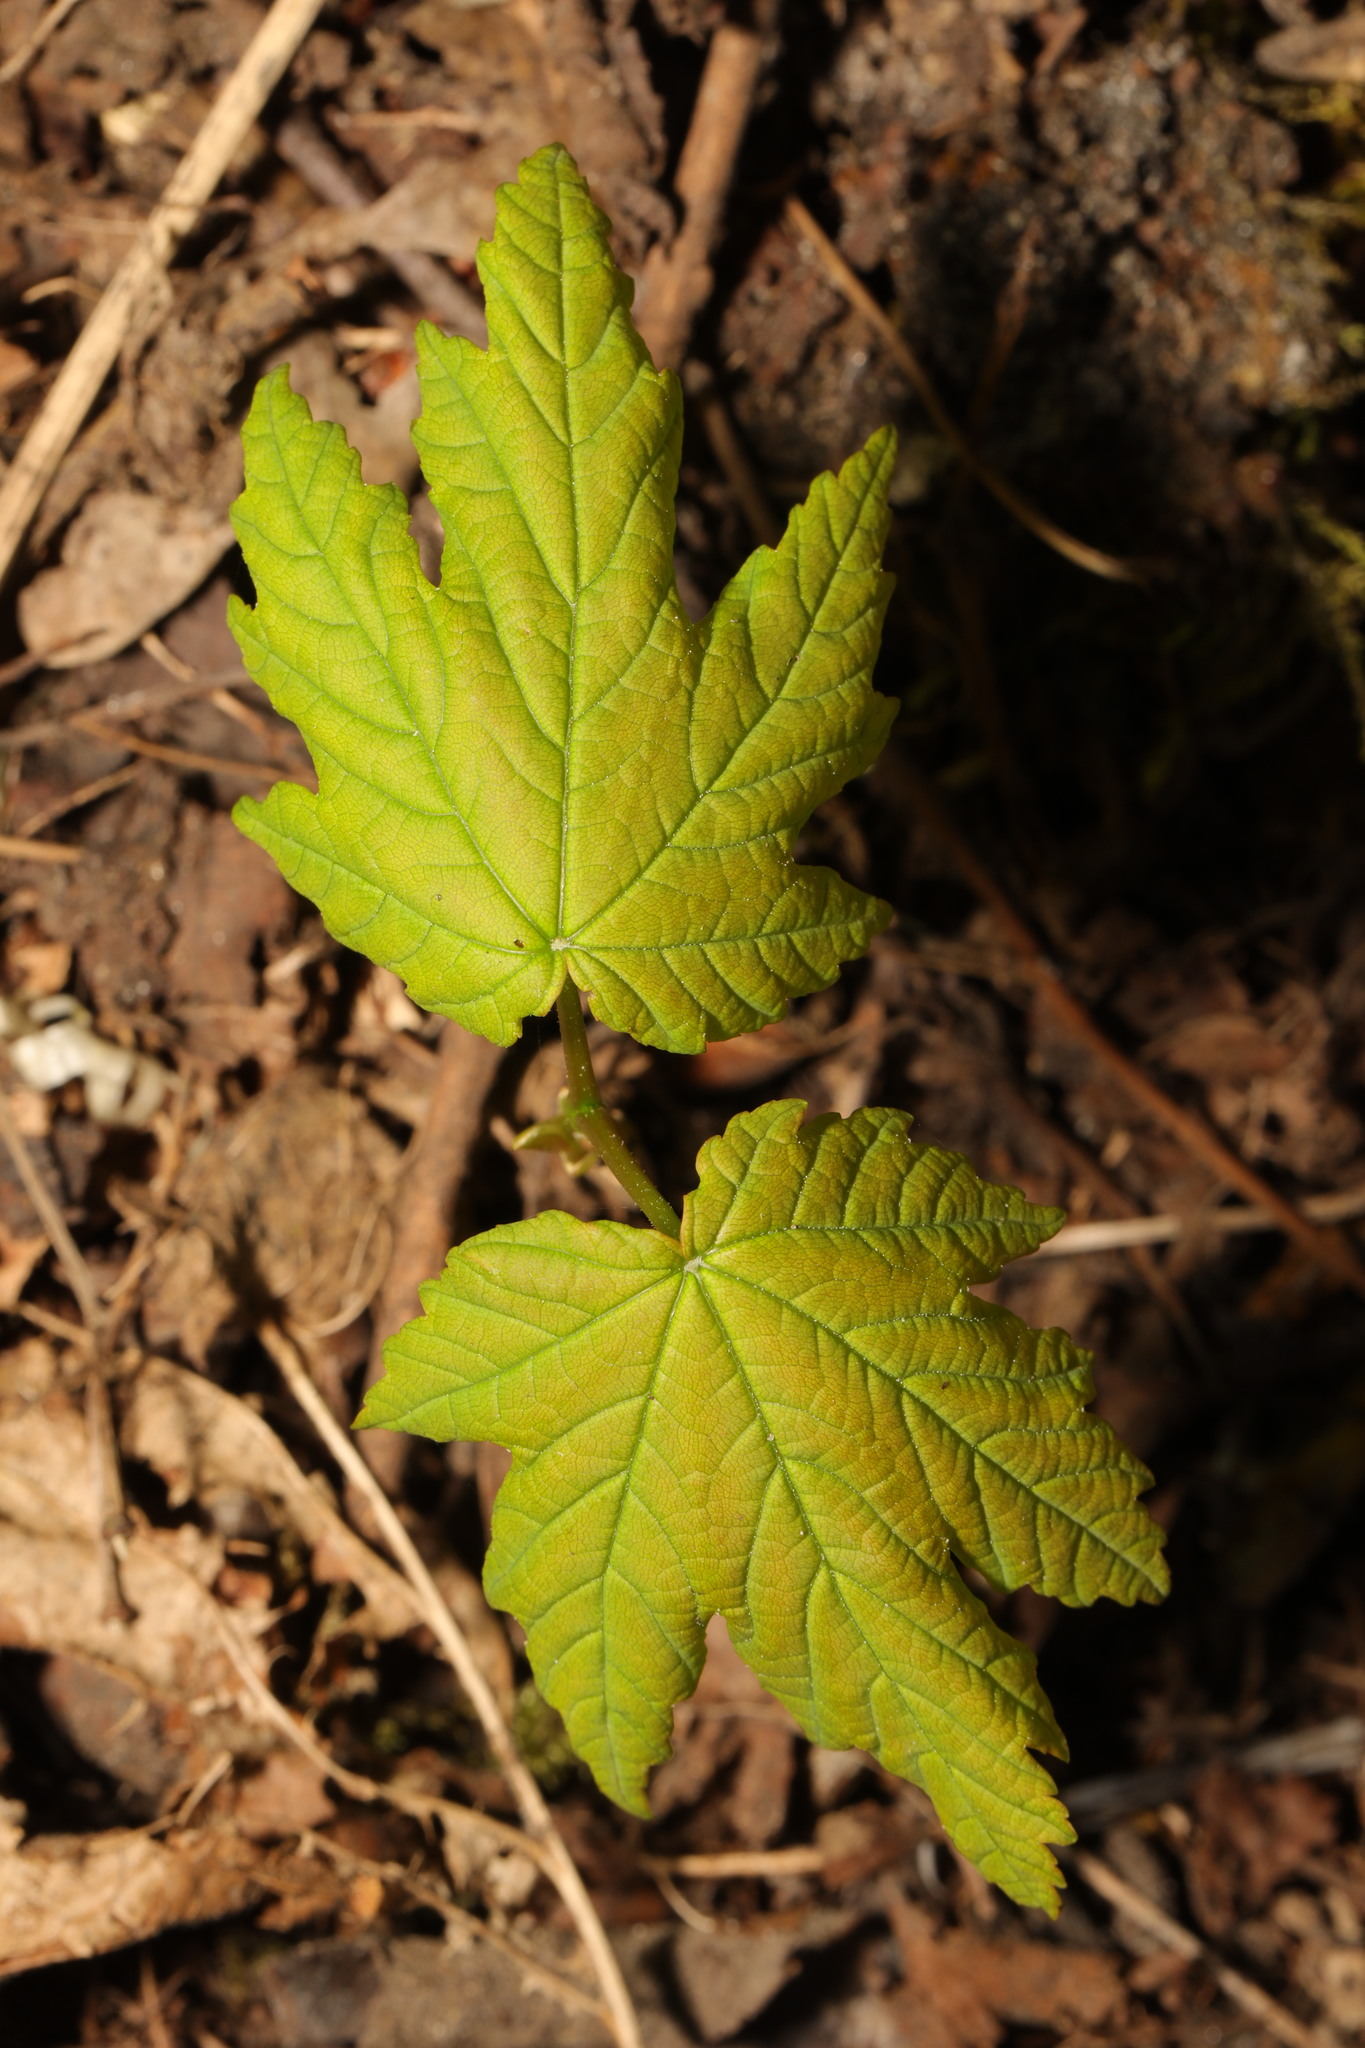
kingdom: Plantae
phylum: Tracheophyta
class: Magnoliopsida
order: Sapindales
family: Sapindaceae
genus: Acer
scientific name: Acer pseudoplatanus
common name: Sycamore
